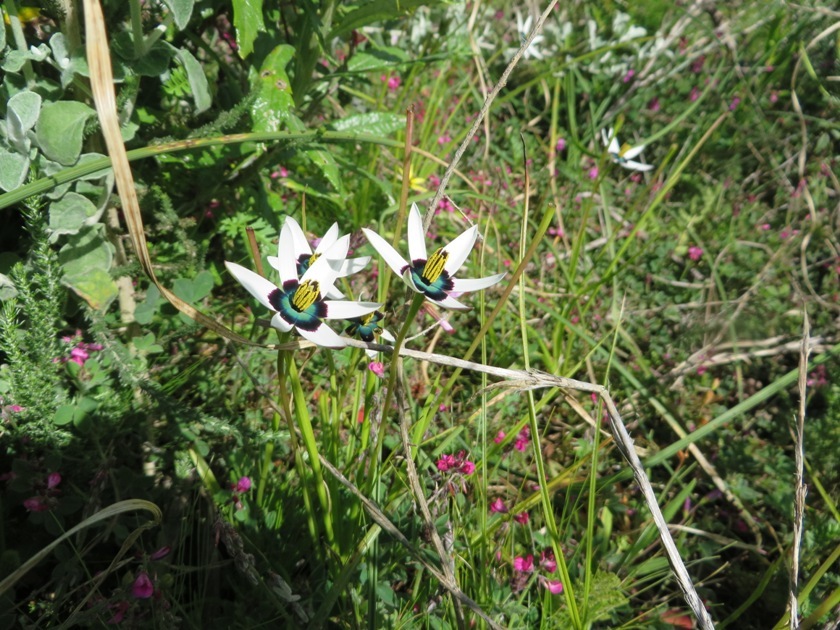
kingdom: Plantae
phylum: Tracheophyta
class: Liliopsida
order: Asparagales
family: Hypoxidaceae
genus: Pauridia
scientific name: Pauridia capensis
